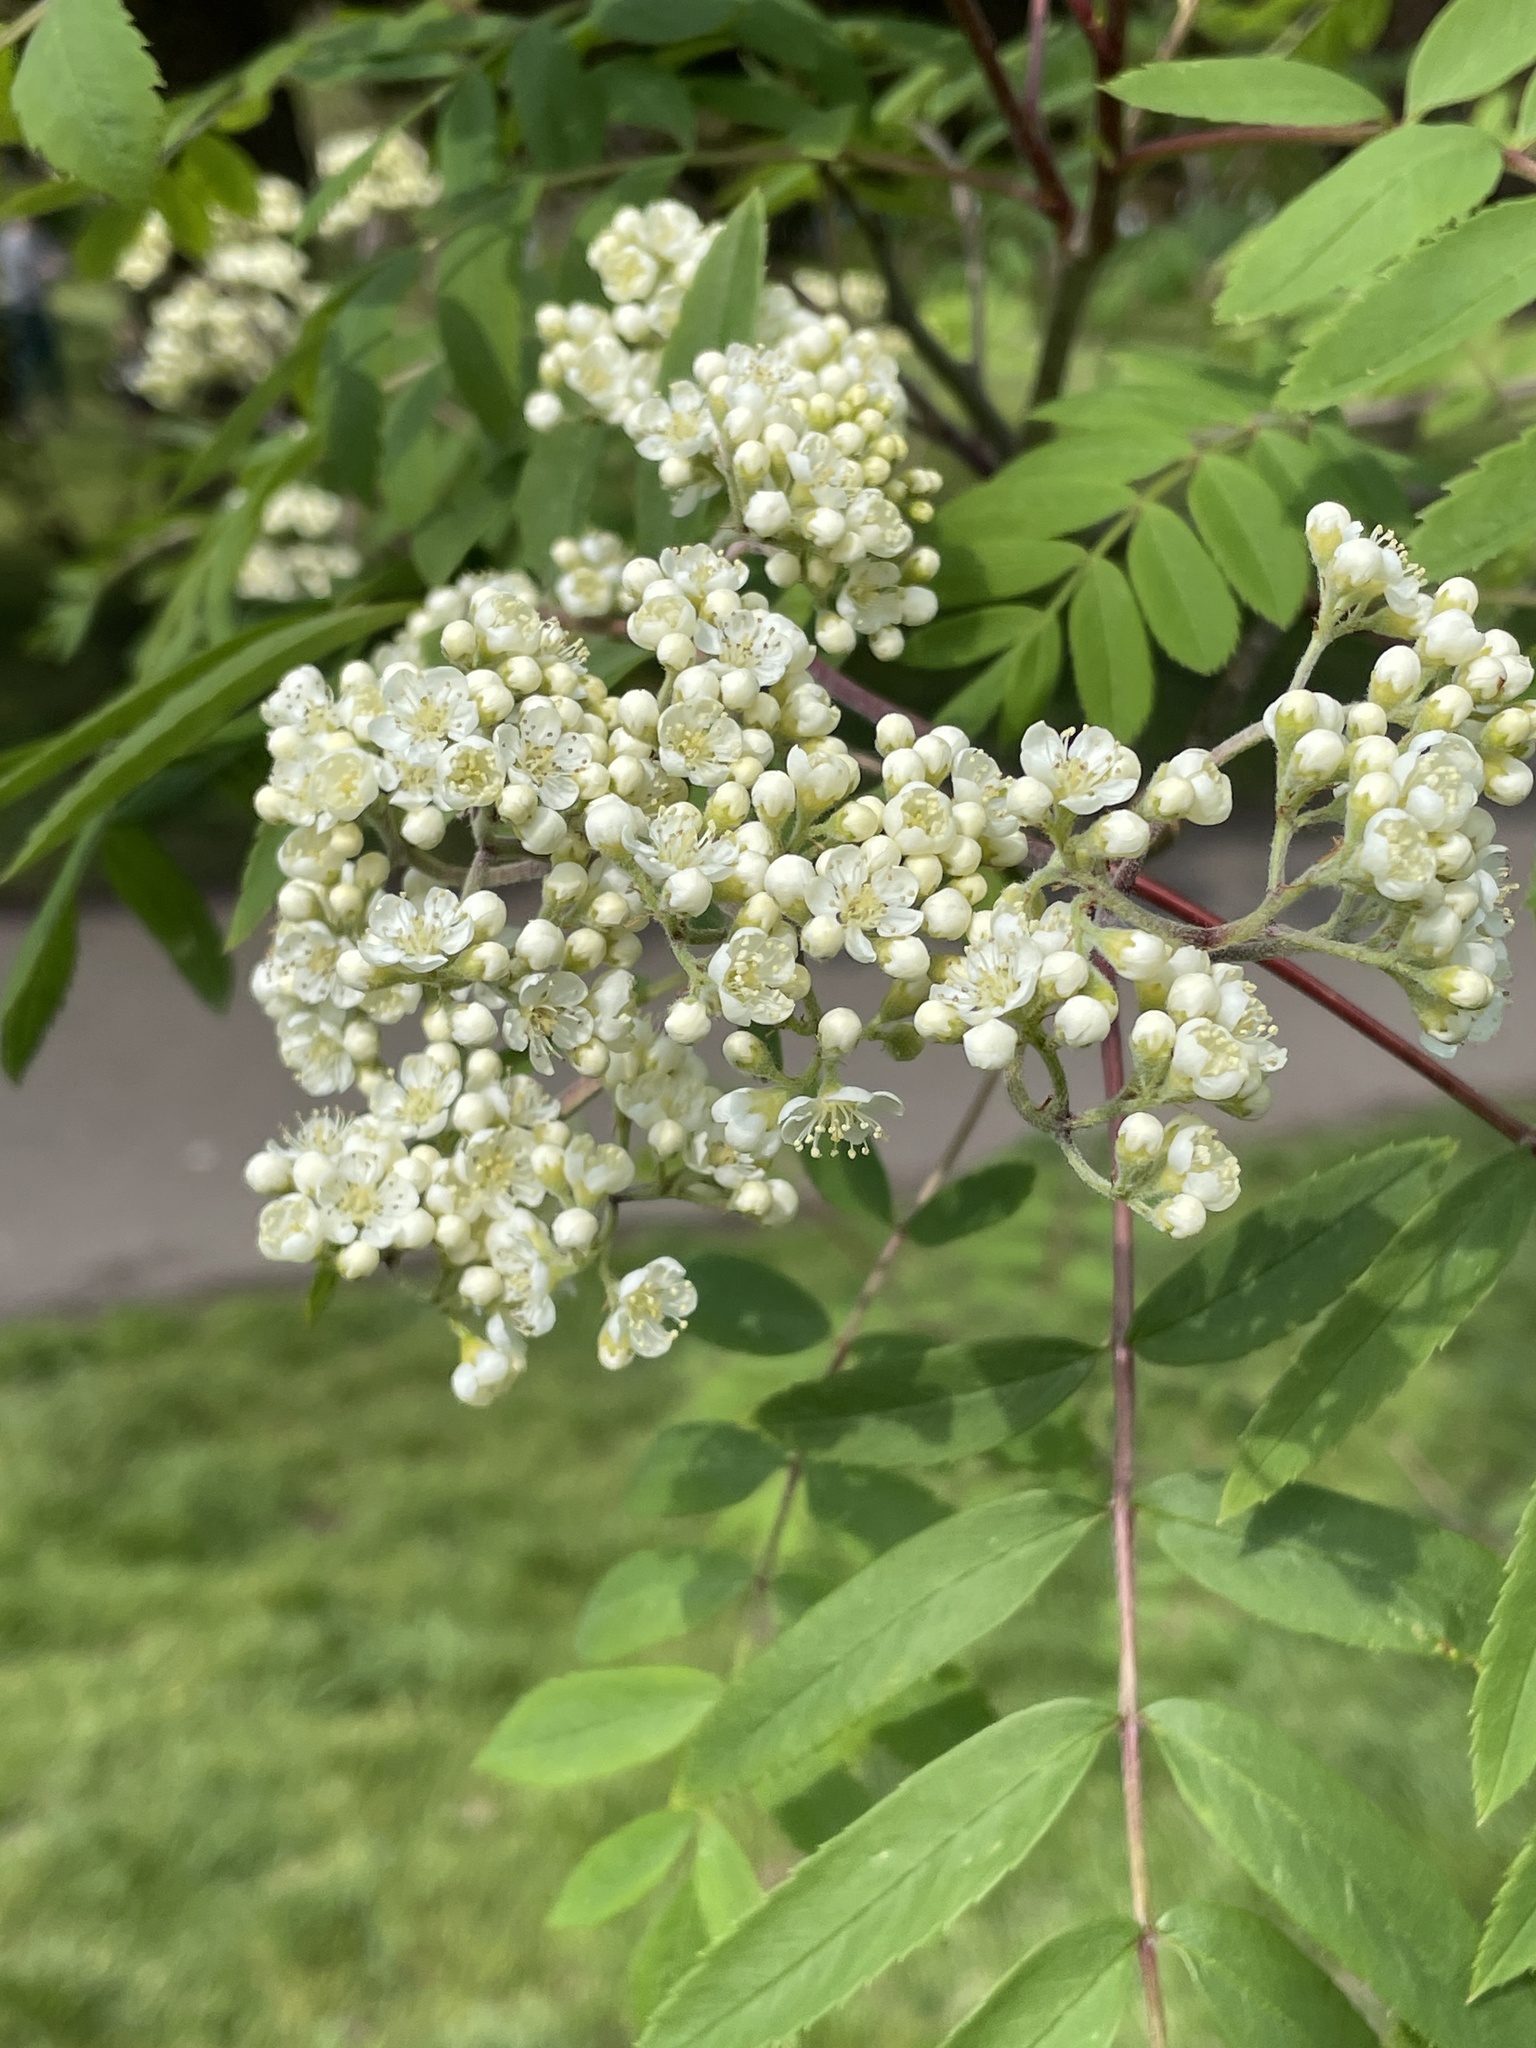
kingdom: Plantae
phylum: Tracheophyta
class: Magnoliopsida
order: Rosales
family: Rosaceae
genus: Sorbus
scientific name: Sorbus aucuparia
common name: Rowan
